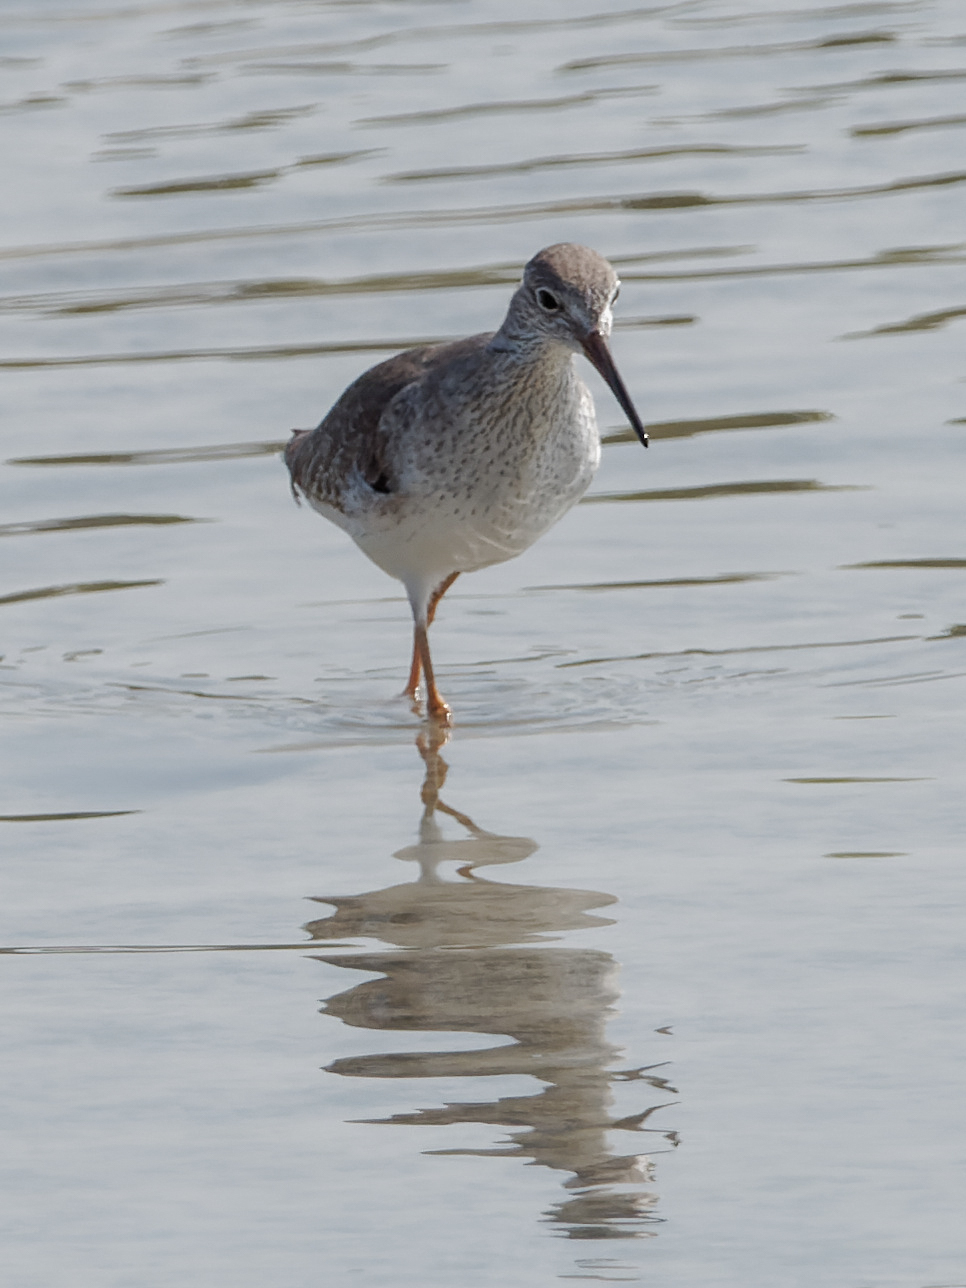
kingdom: Animalia
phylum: Chordata
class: Aves
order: Charadriiformes
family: Scolopacidae
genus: Tringa
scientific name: Tringa totanus
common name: Common redshank
